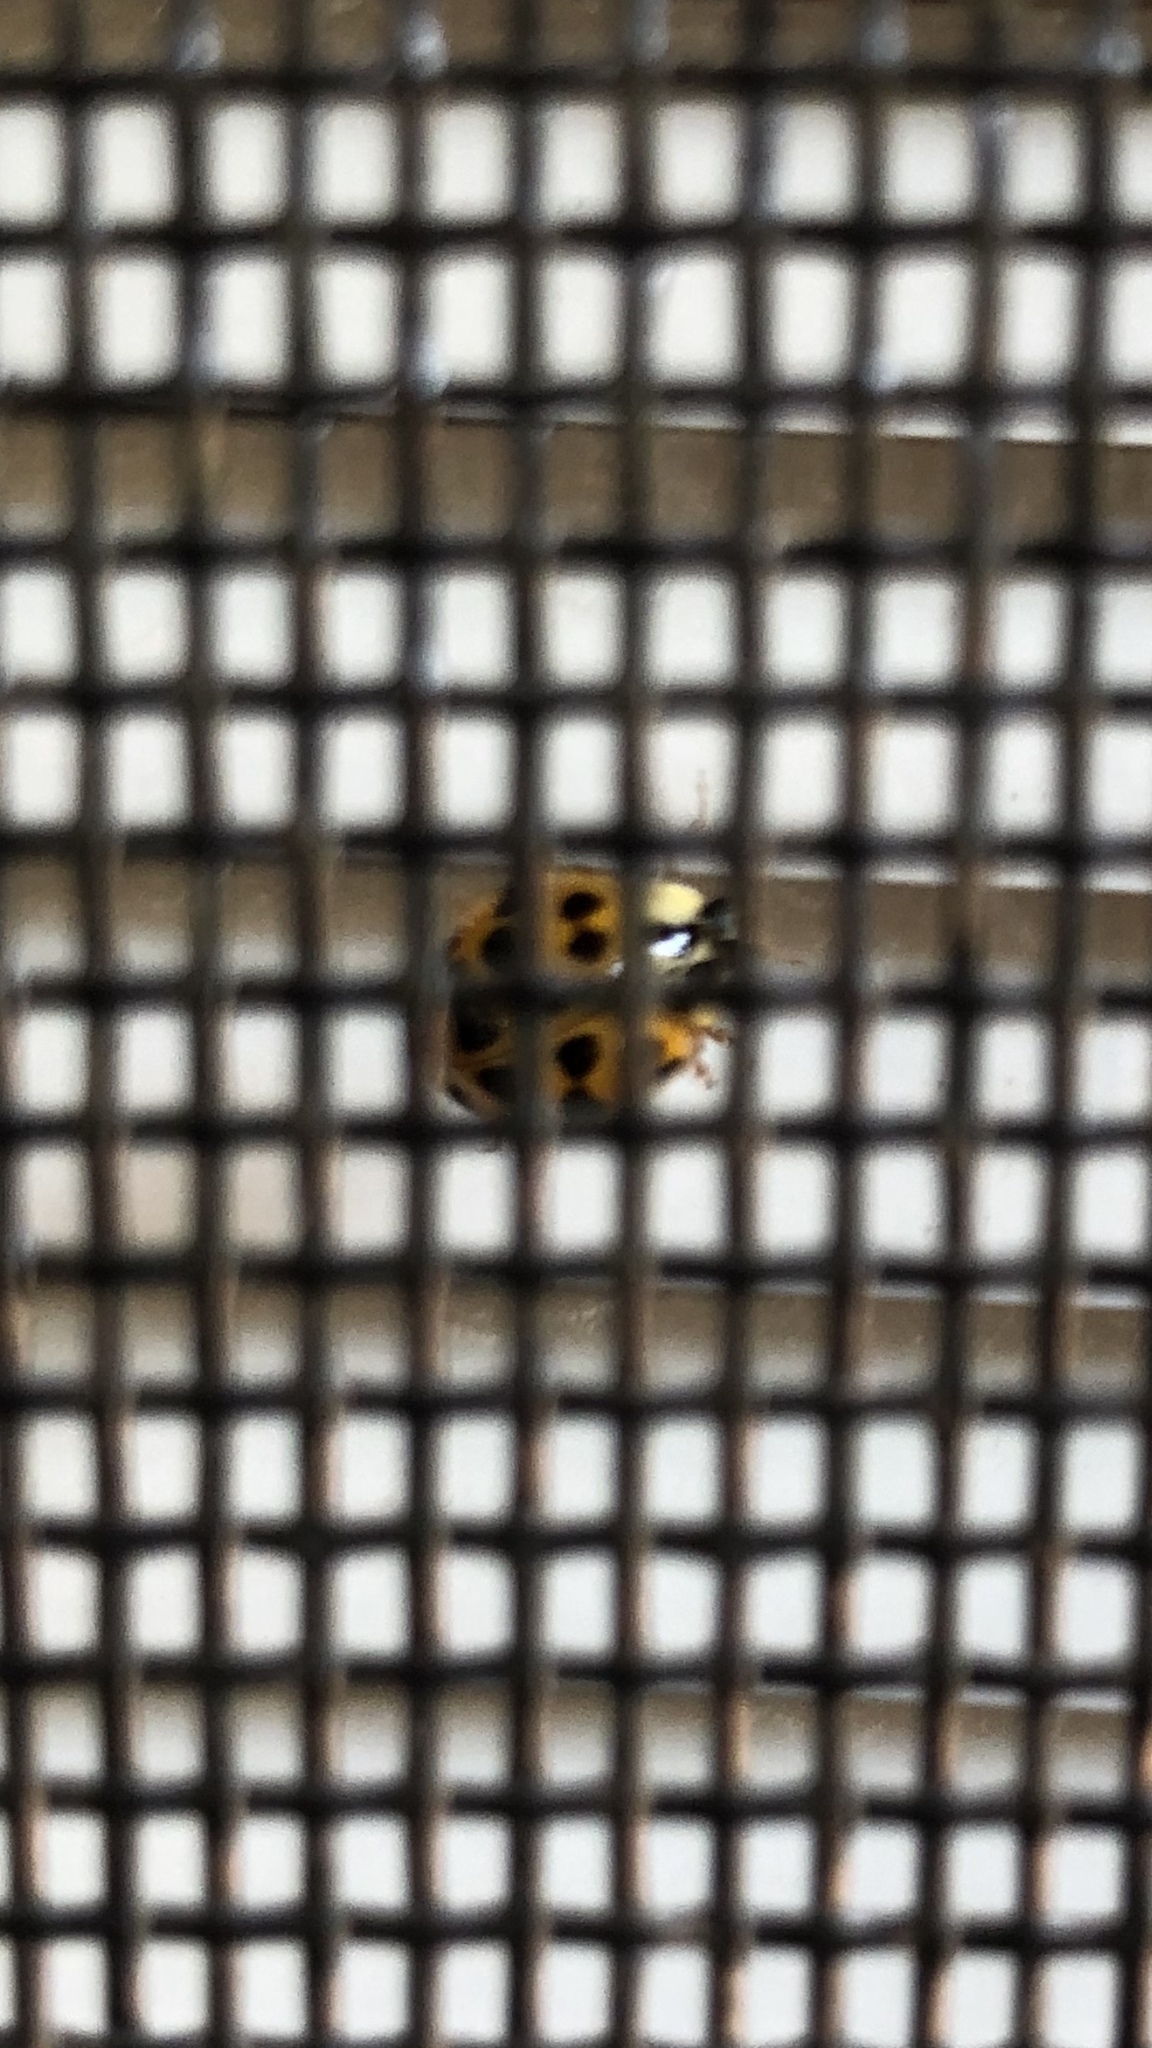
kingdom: Animalia
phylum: Arthropoda
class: Insecta
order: Coleoptera
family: Coccinellidae
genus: Harmonia
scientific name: Harmonia axyridis
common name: Harlequin ladybird
